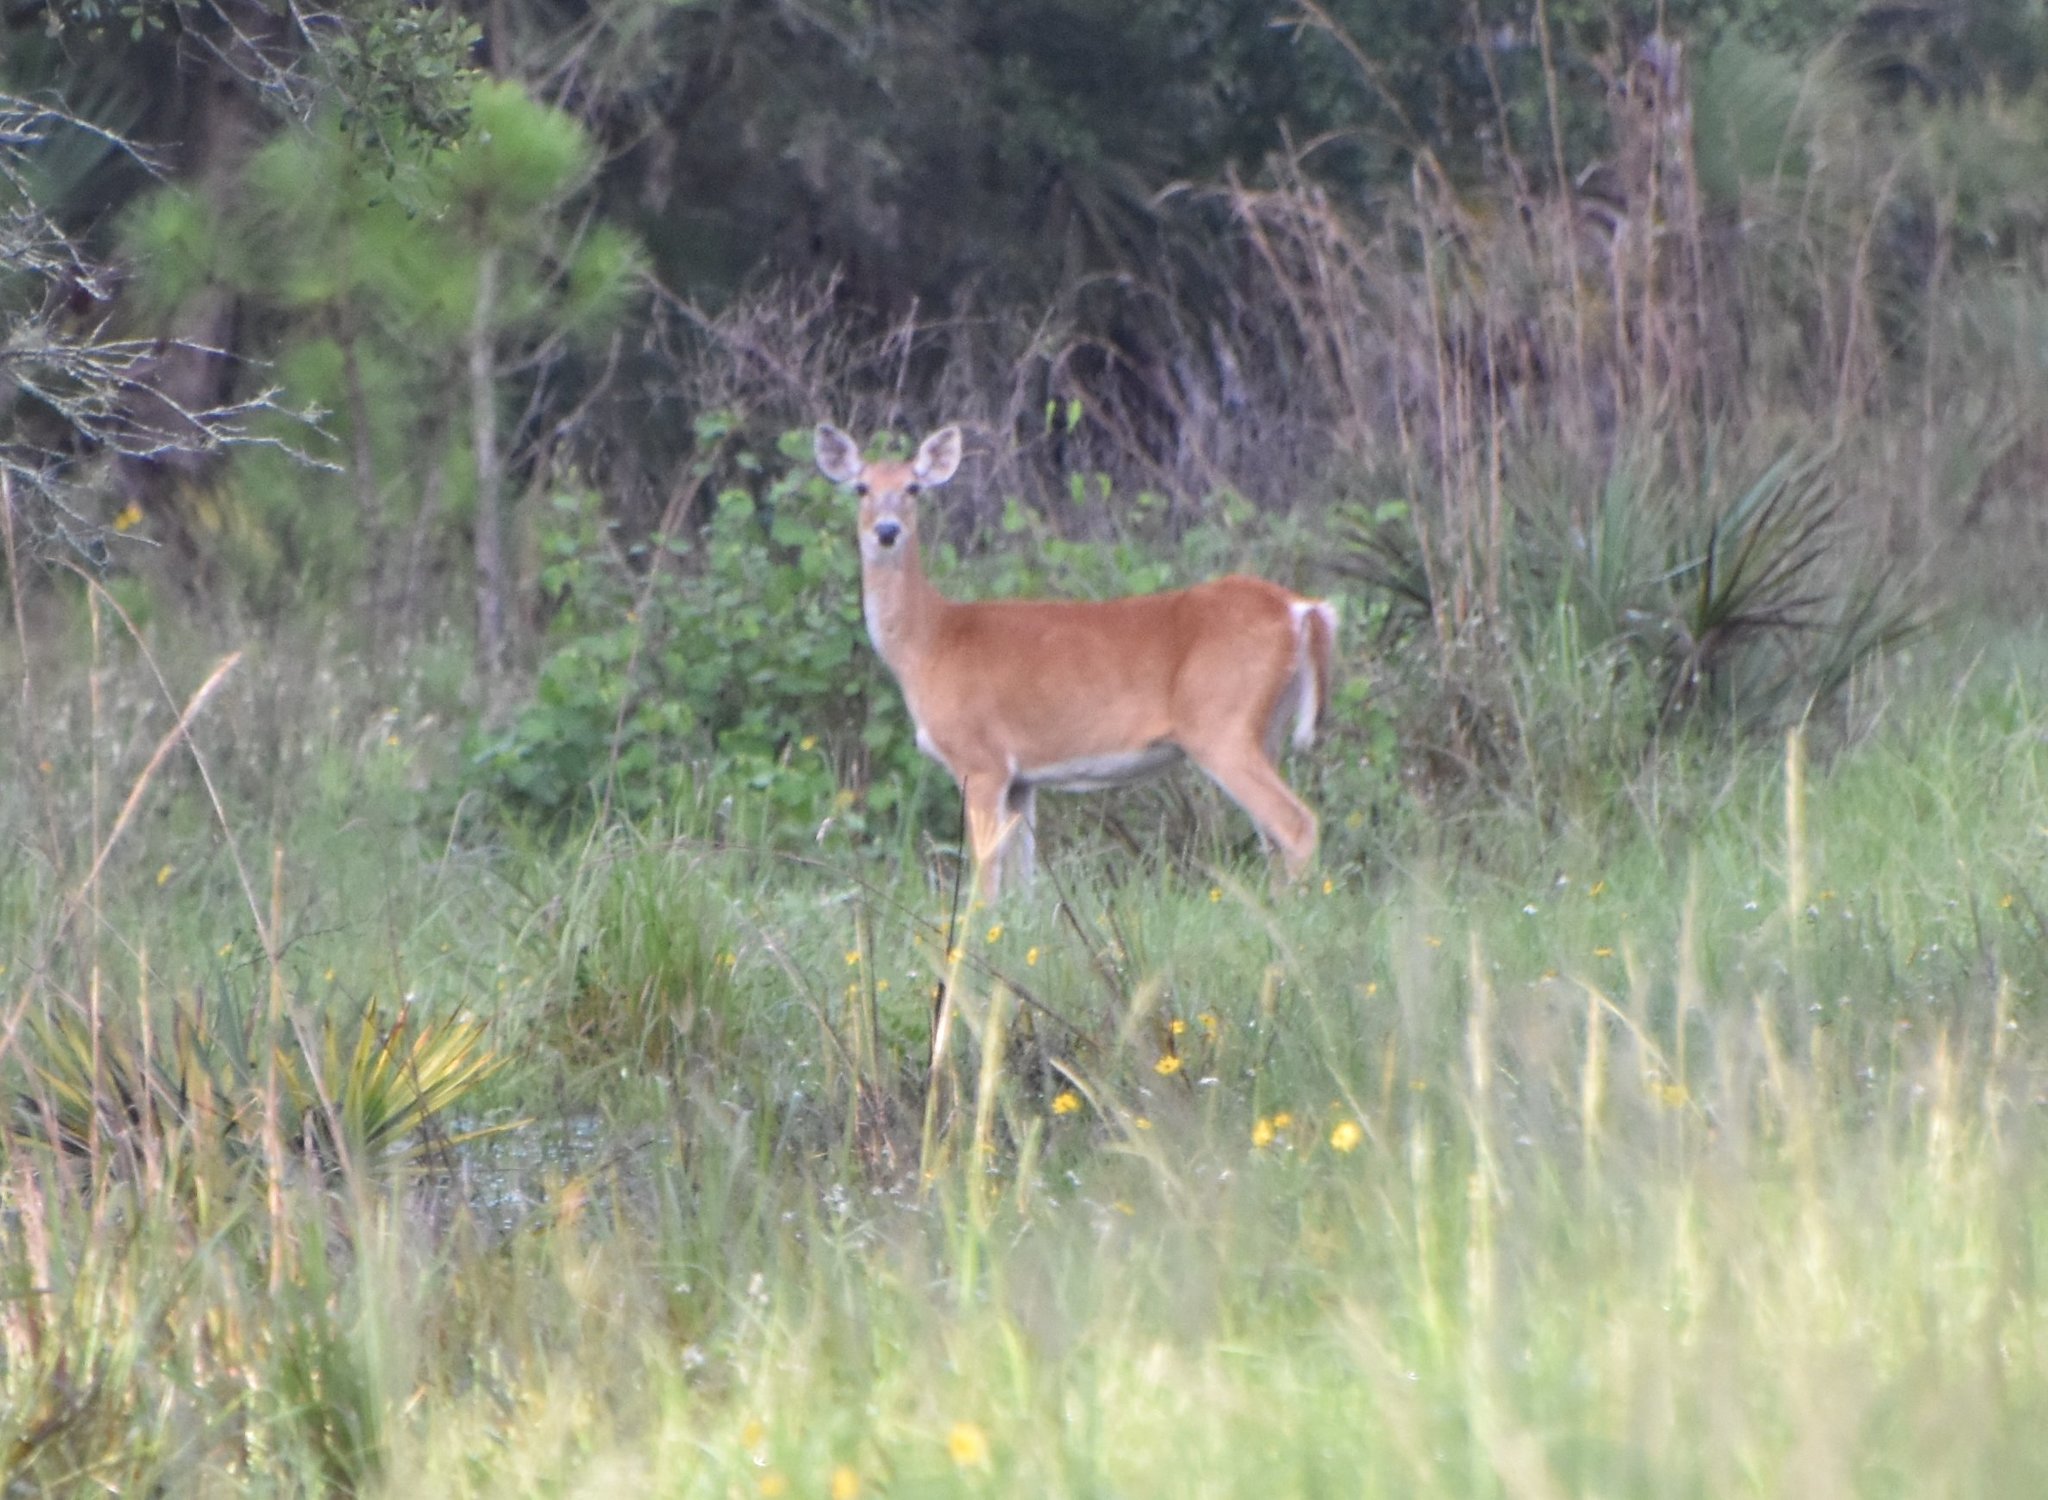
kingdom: Animalia
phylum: Chordata
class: Mammalia
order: Artiodactyla
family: Cervidae
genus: Odocoileus
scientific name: Odocoileus virginianus
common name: White-tailed deer
